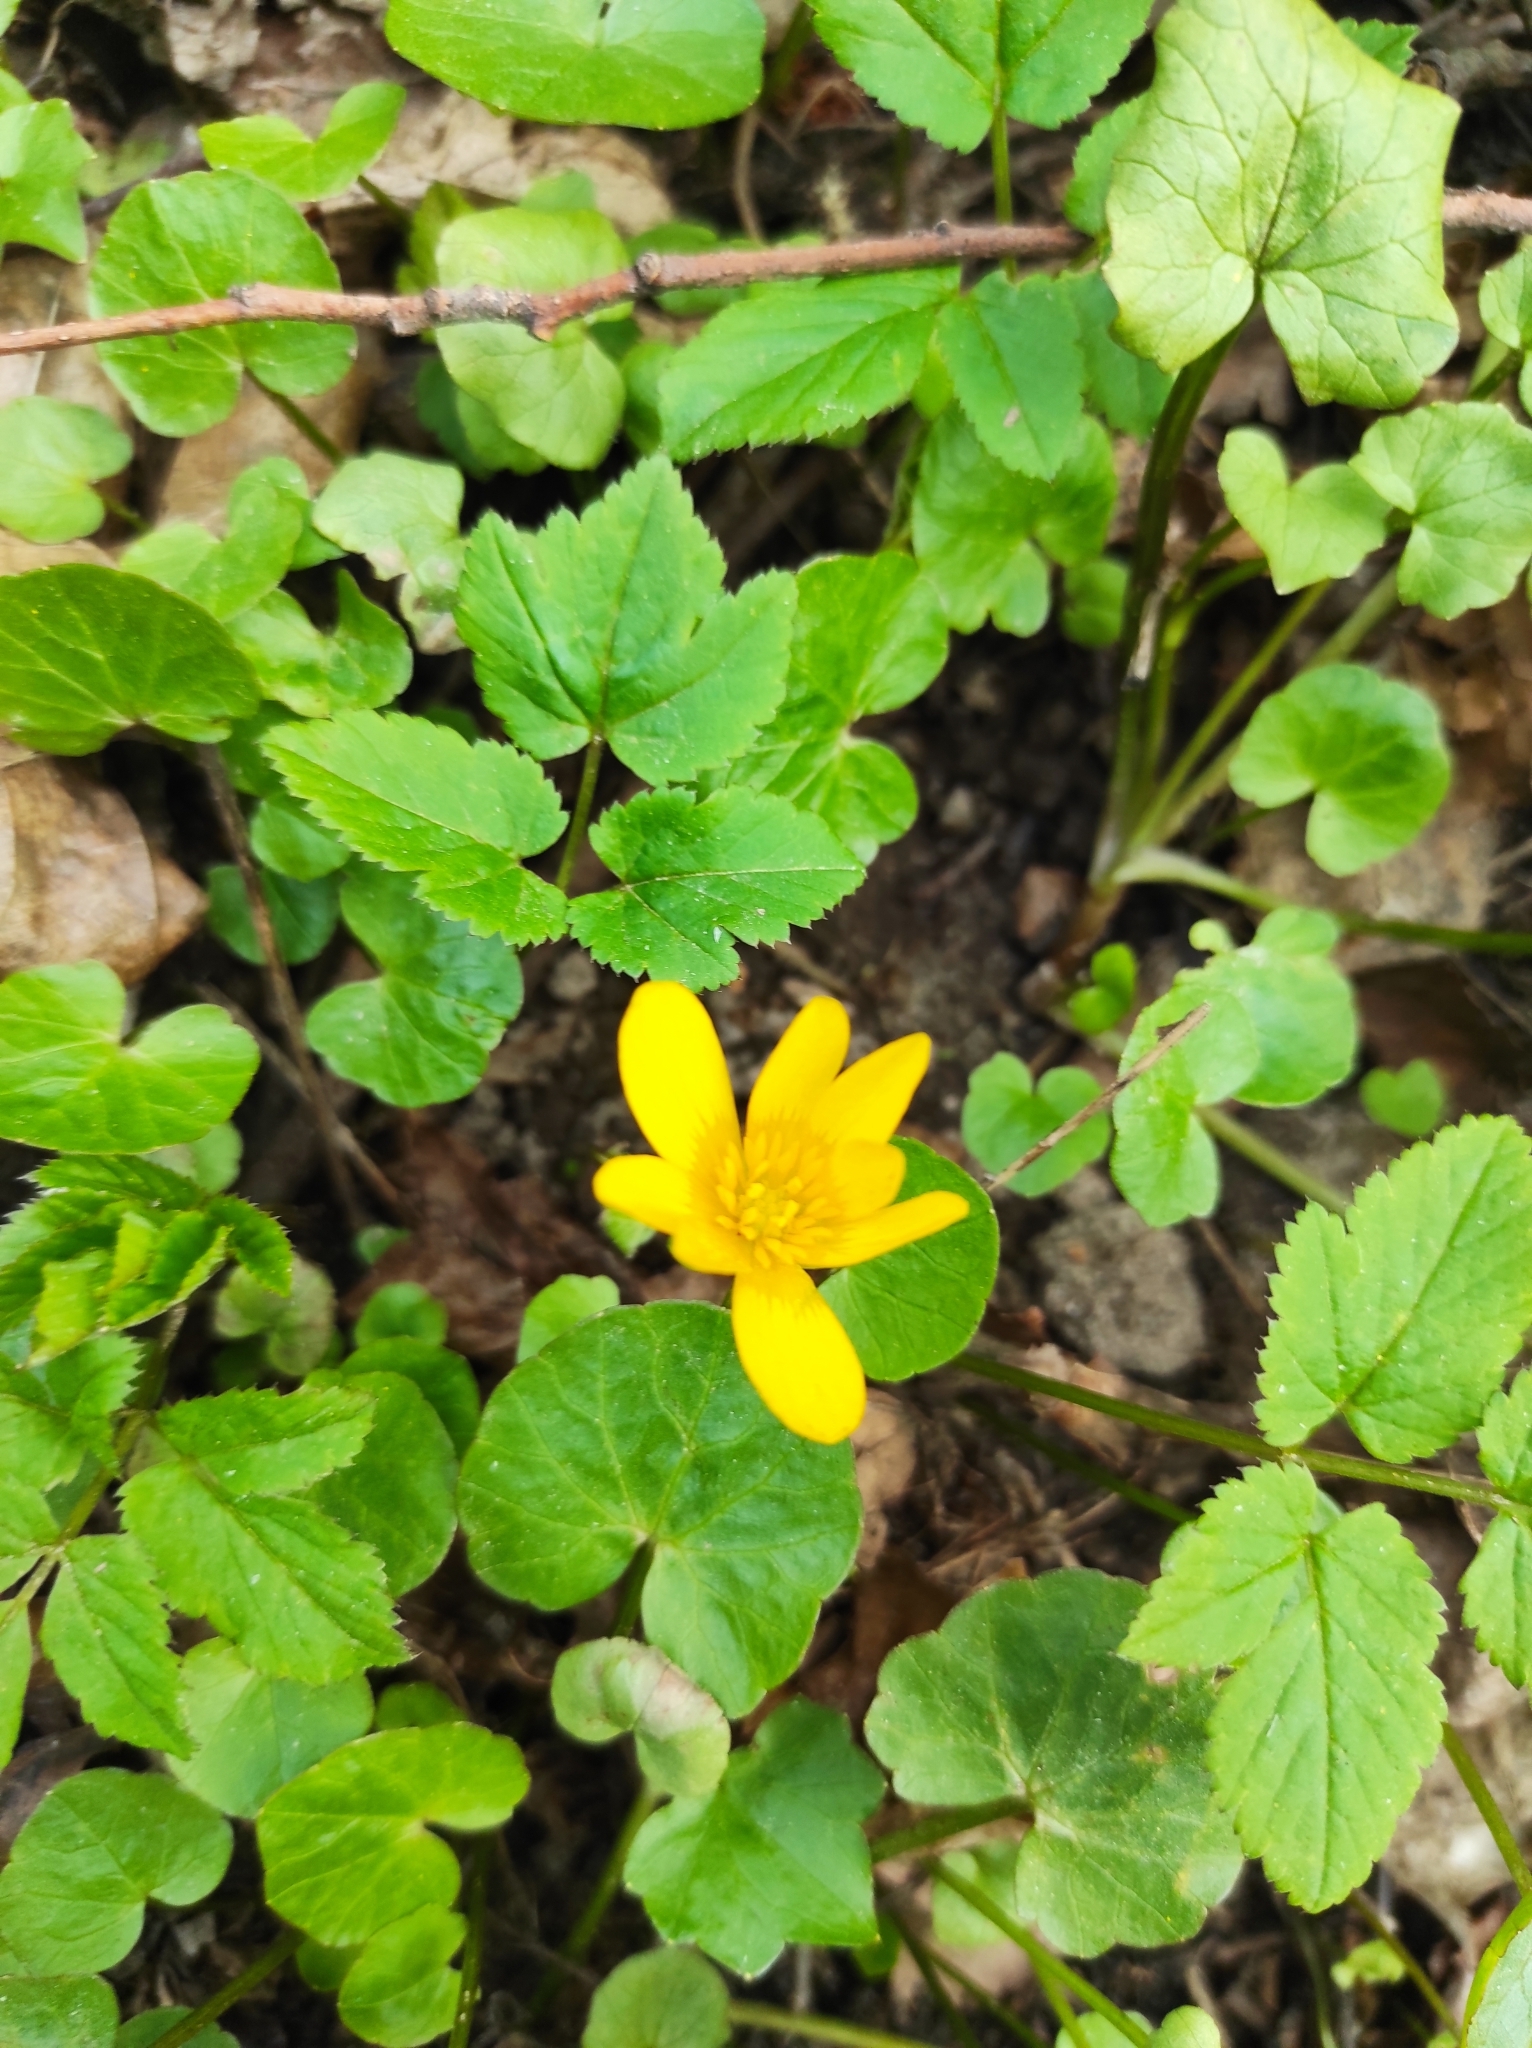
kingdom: Plantae
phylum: Tracheophyta
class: Magnoliopsida
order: Ranunculales
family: Ranunculaceae
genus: Ficaria
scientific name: Ficaria verna
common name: Lesser celandine
